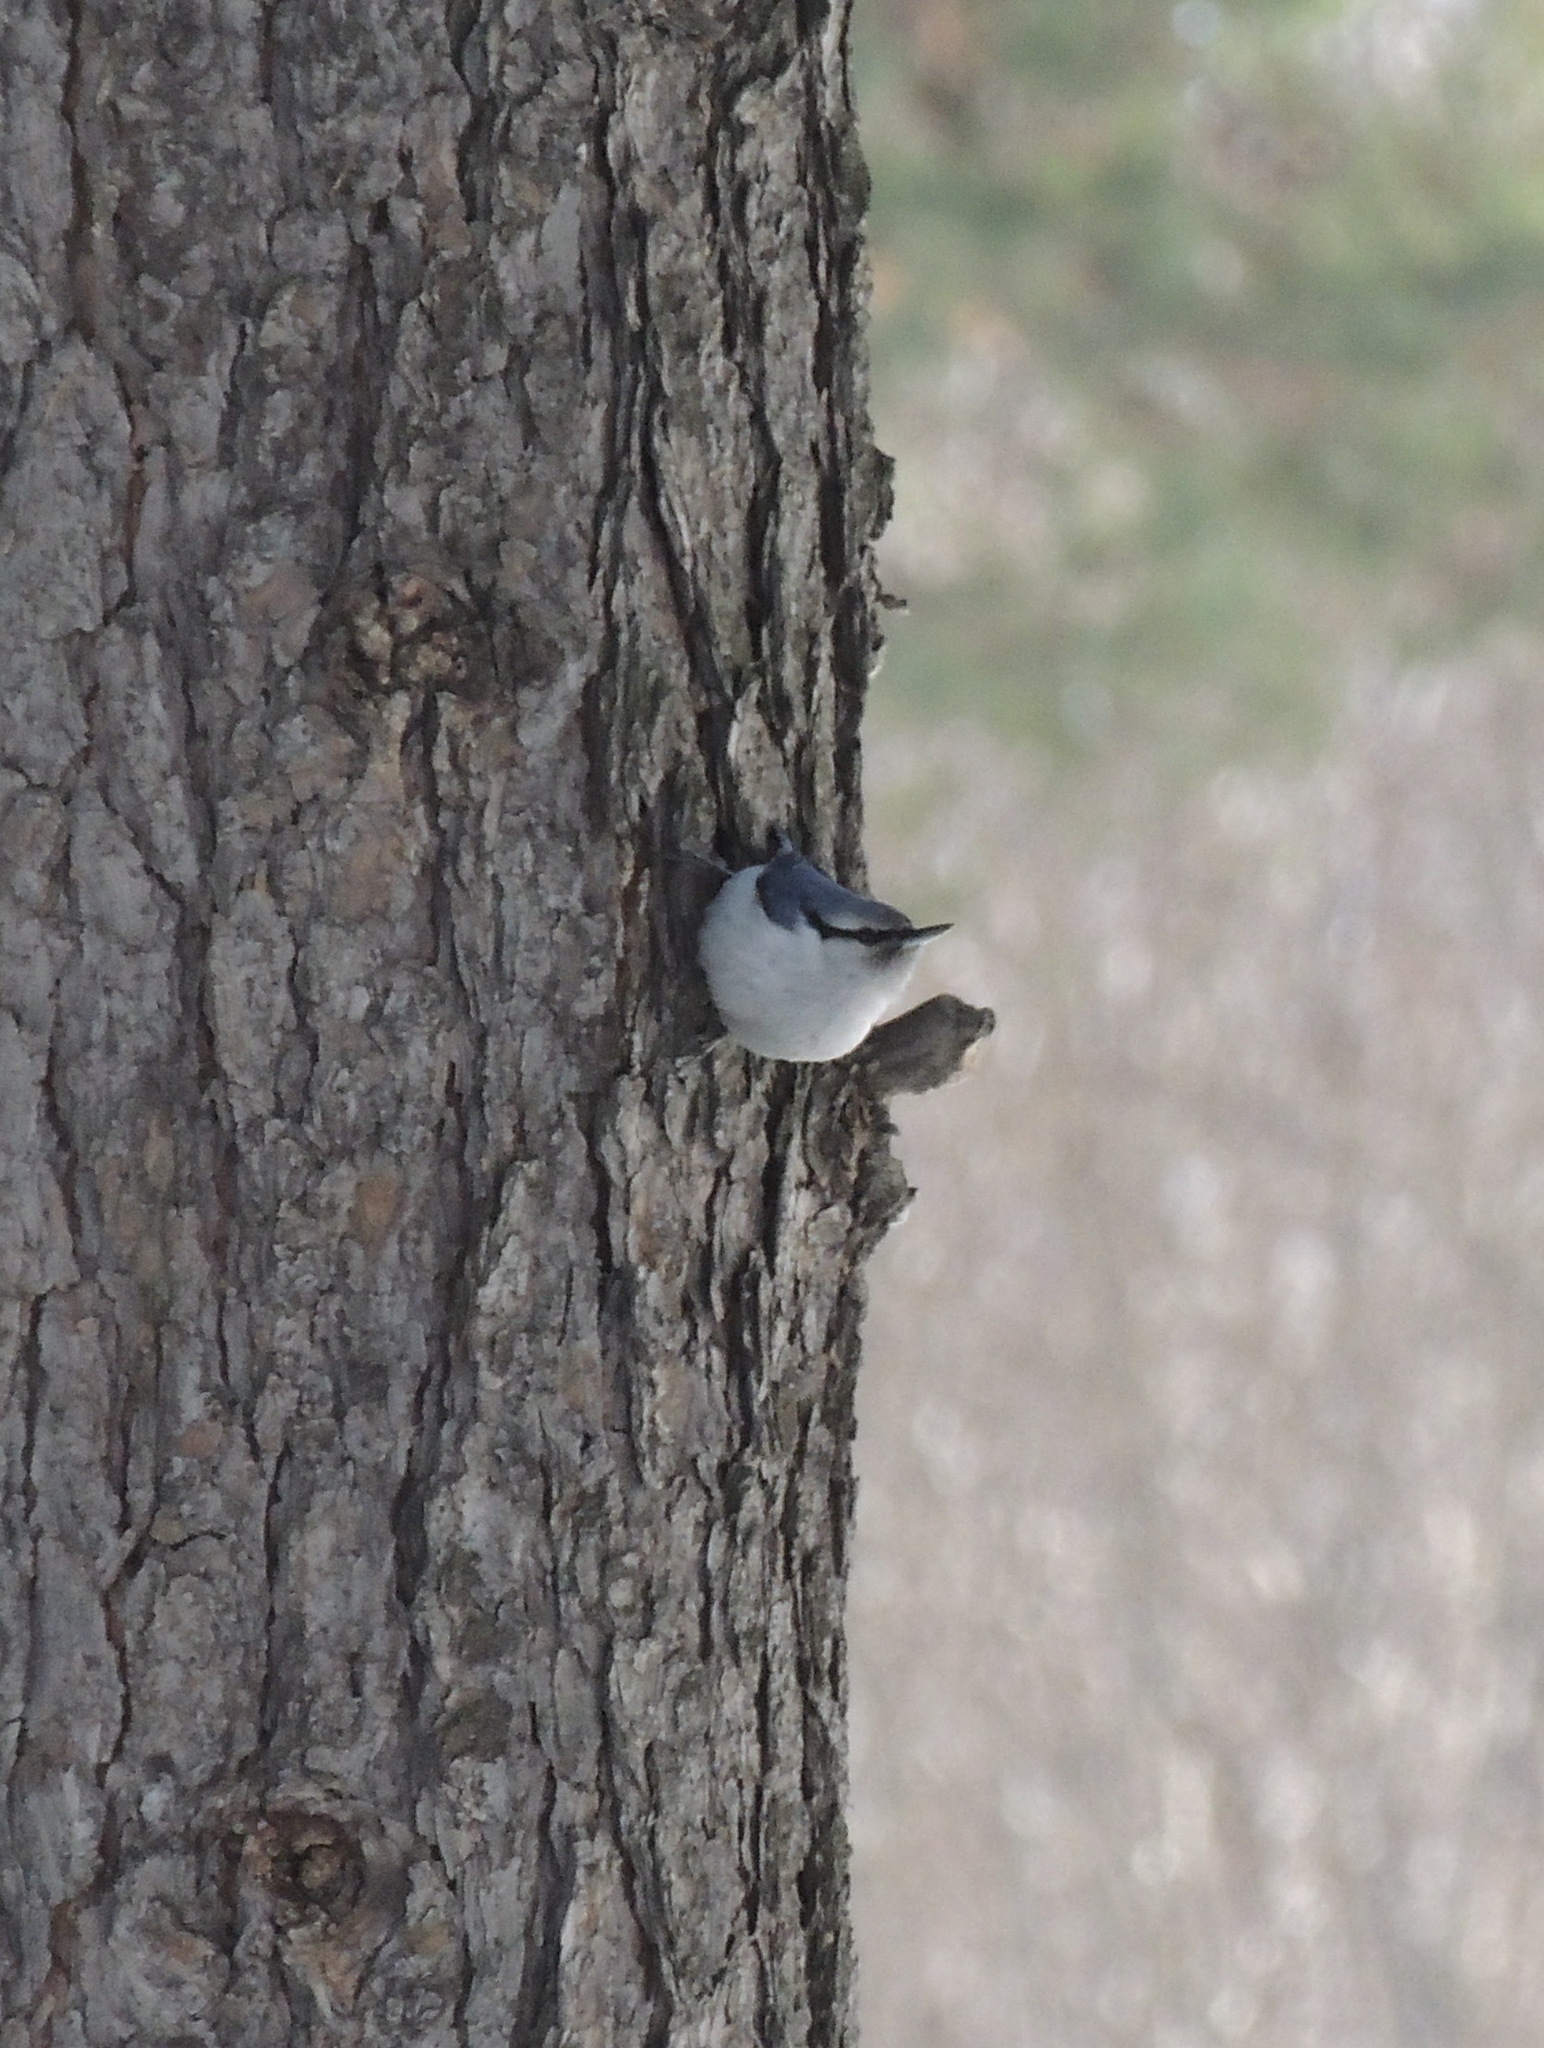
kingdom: Animalia
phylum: Chordata
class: Aves
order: Passeriformes
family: Sittidae
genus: Sitta
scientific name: Sitta europaea
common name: Eurasian nuthatch
